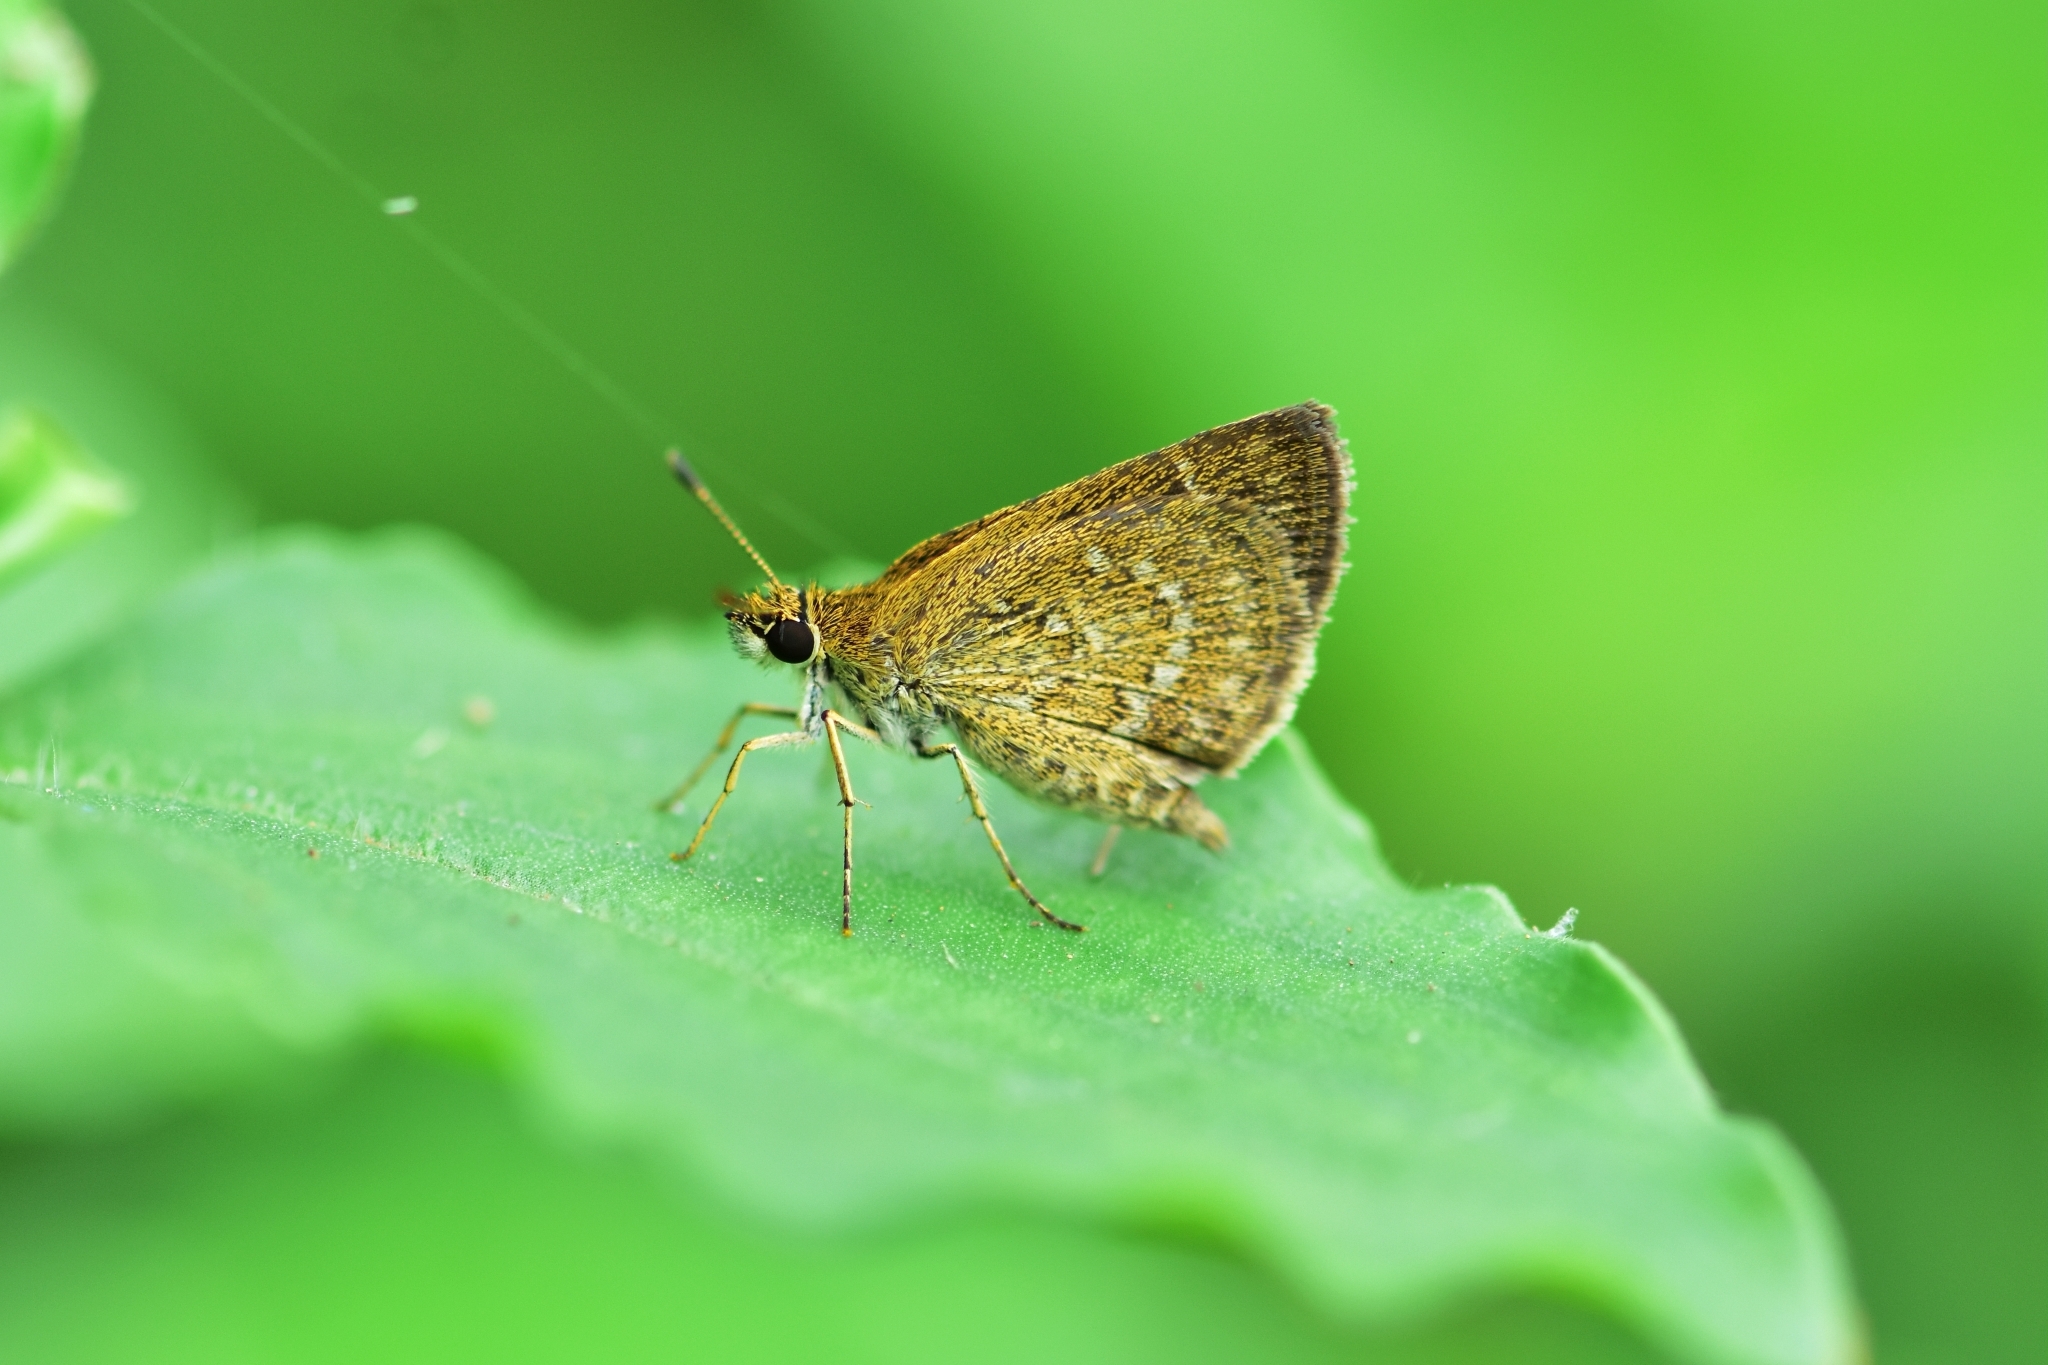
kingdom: Animalia
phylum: Arthropoda
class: Insecta
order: Lepidoptera
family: Hesperiidae
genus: Aeromachus
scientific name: Aeromachus pygmaeus
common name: Pygmy scrub hopper
